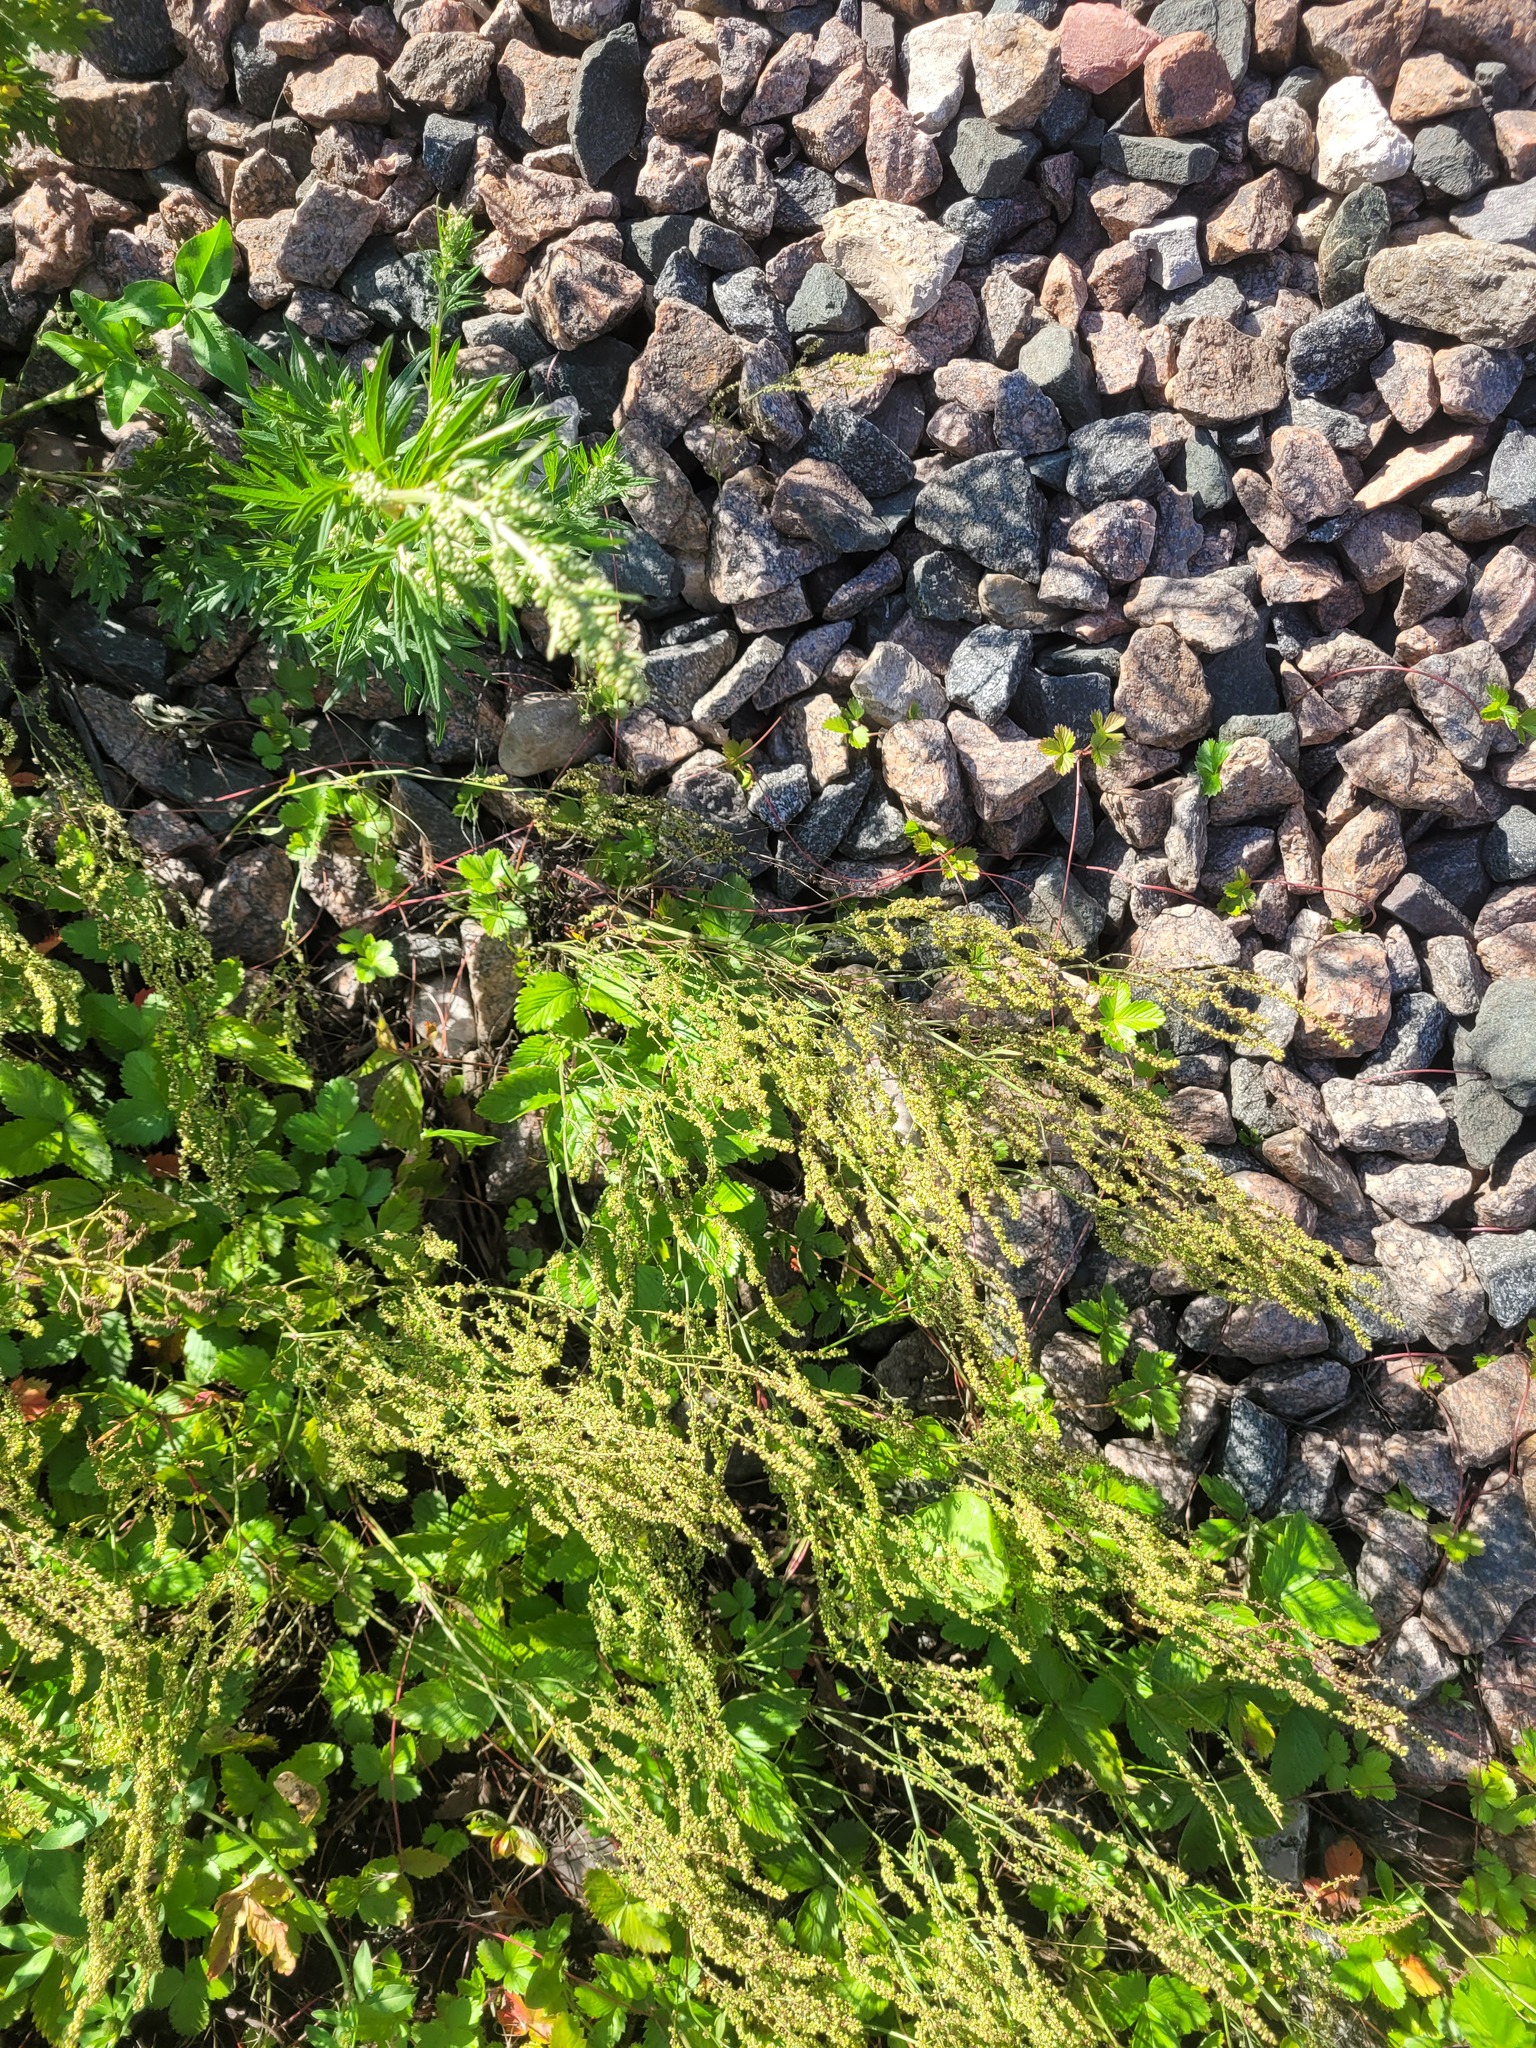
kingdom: Plantae
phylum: Tracheophyta
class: Magnoliopsida
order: Caryophyllales
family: Polygonaceae
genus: Rumex
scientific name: Rumex acetosella
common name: Common sheep sorrel
